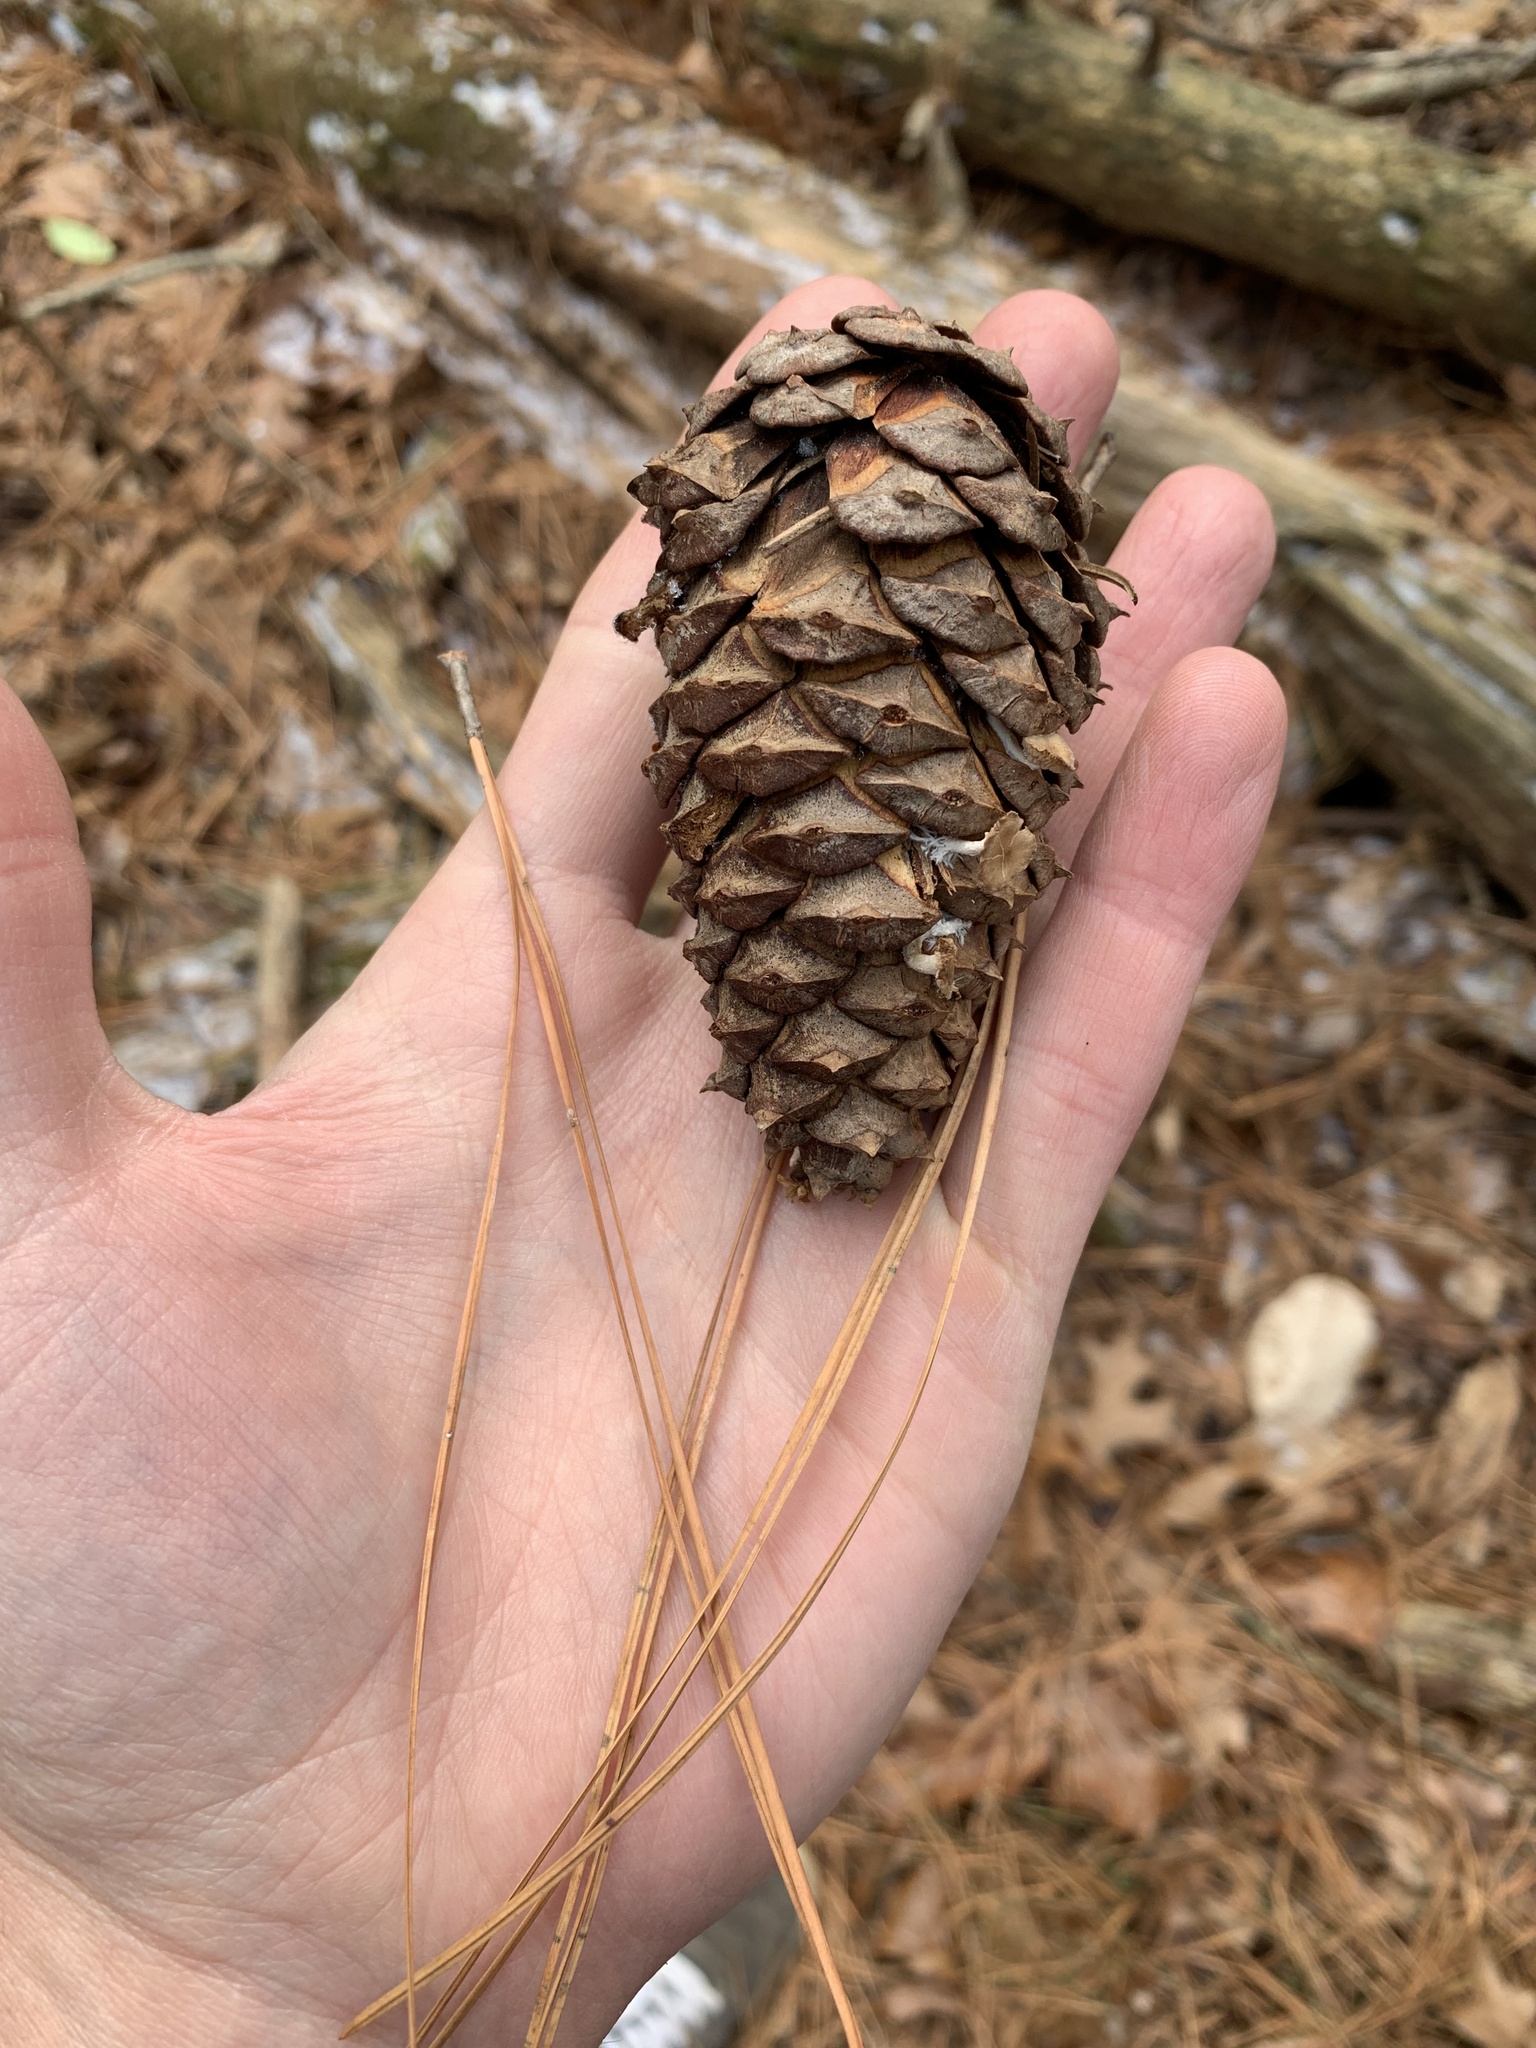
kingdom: Plantae
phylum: Tracheophyta
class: Pinopsida
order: Pinales
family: Pinaceae
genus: Pinus
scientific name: Pinus taeda
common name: Loblolly pine
